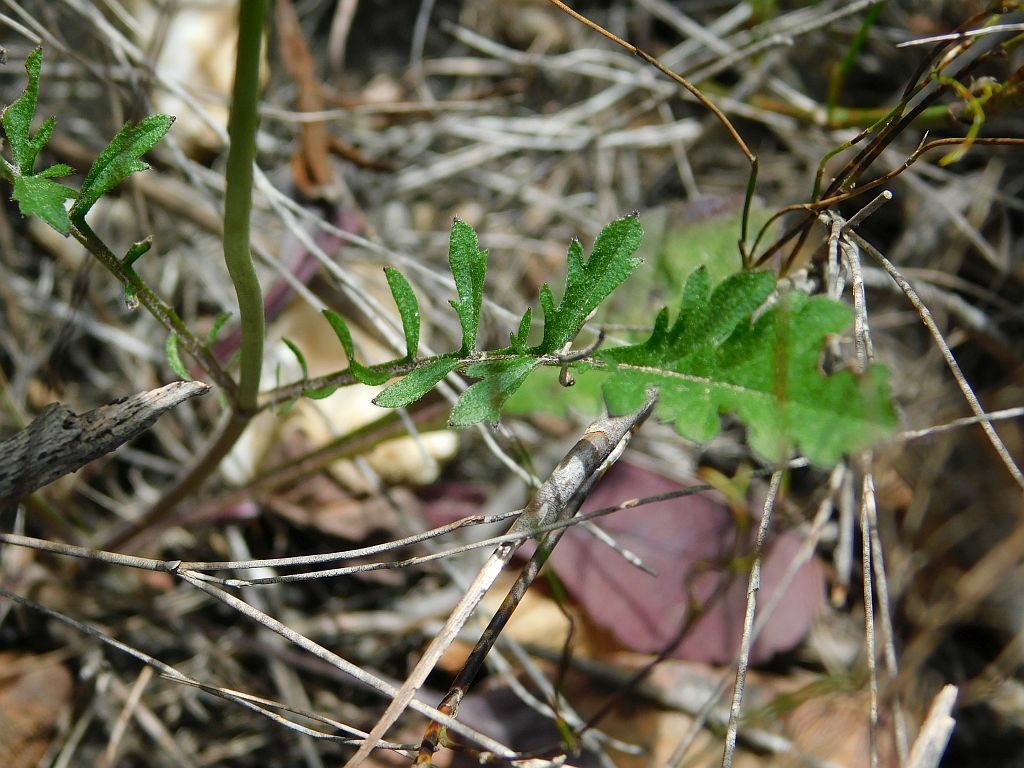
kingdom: Plantae
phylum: Tracheophyta
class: Magnoliopsida
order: Dipsacales
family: Caprifoliaceae
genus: Scabiosa
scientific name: Scabiosa columbaria
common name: Small scabious
